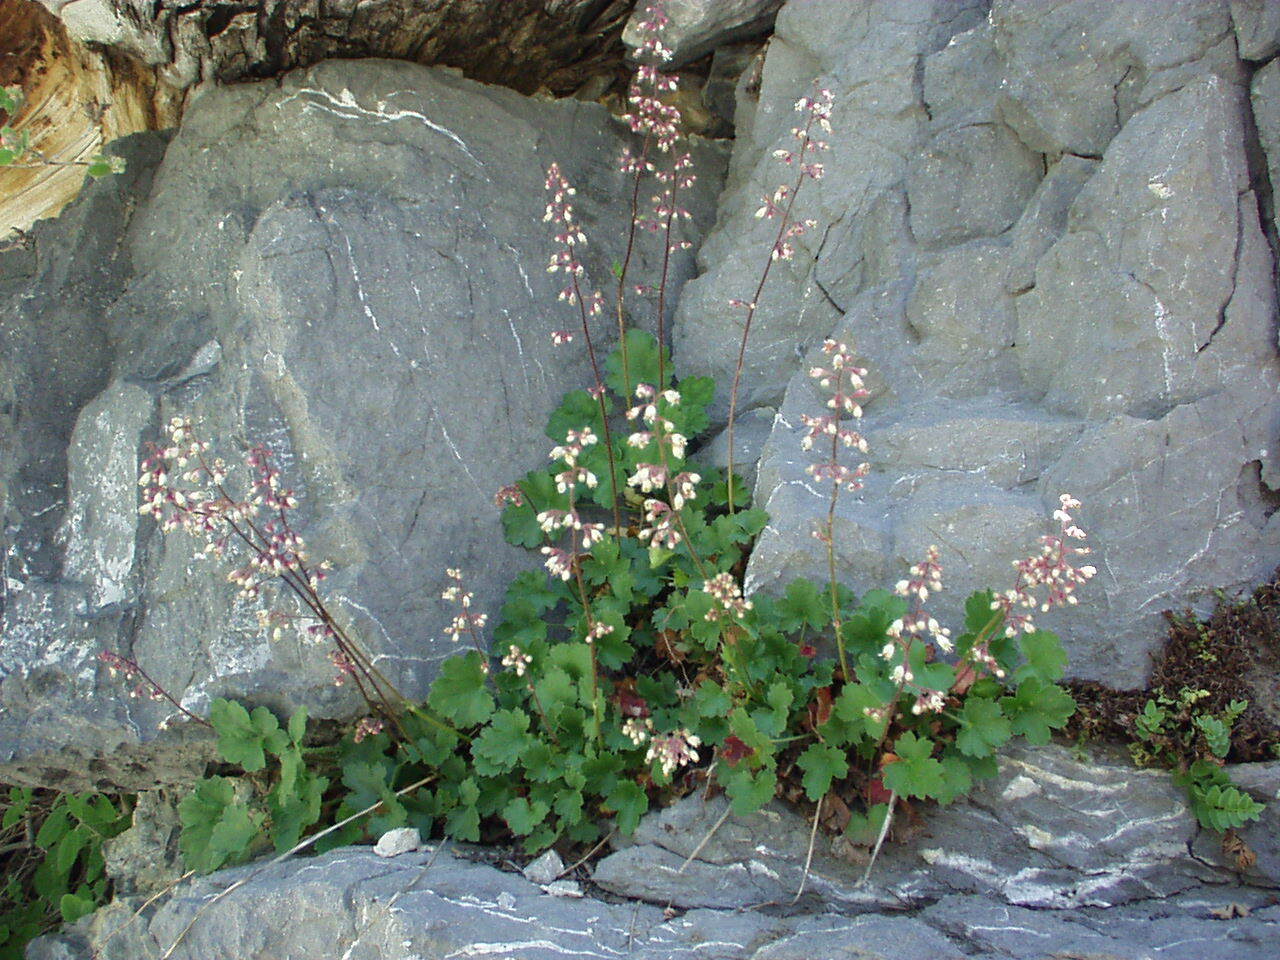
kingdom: Plantae
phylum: Tracheophyta
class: Magnoliopsida
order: Saxifragales
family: Saxifragaceae
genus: Heuchera
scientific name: Heuchera rubescens
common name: Jack-o'the-rocks
